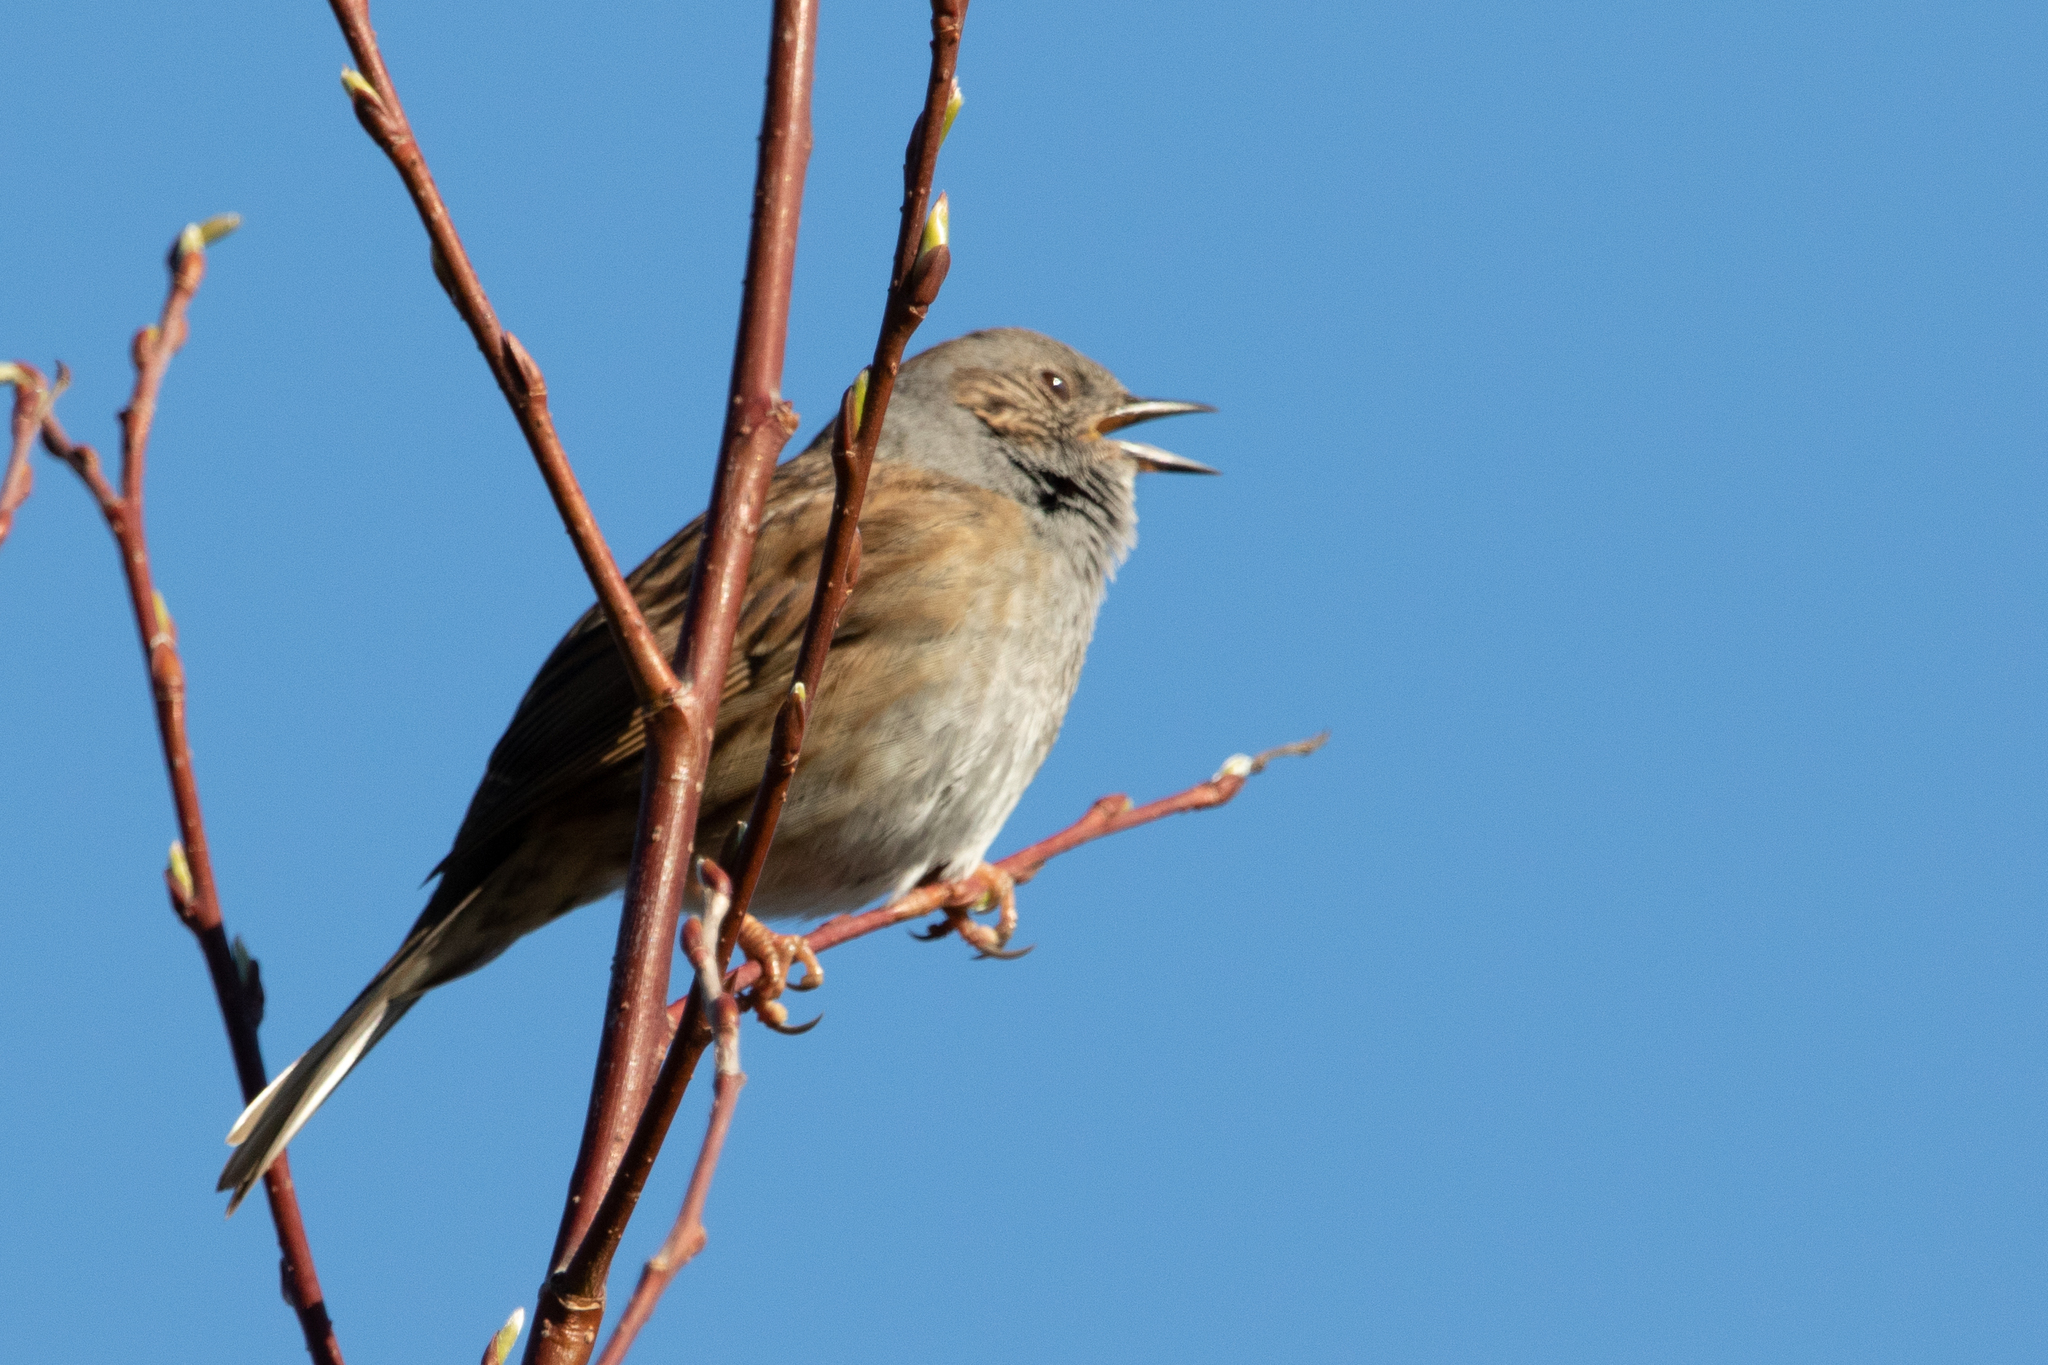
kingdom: Animalia
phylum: Chordata
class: Aves
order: Passeriformes
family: Prunellidae
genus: Prunella
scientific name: Prunella modularis
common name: Dunnock
